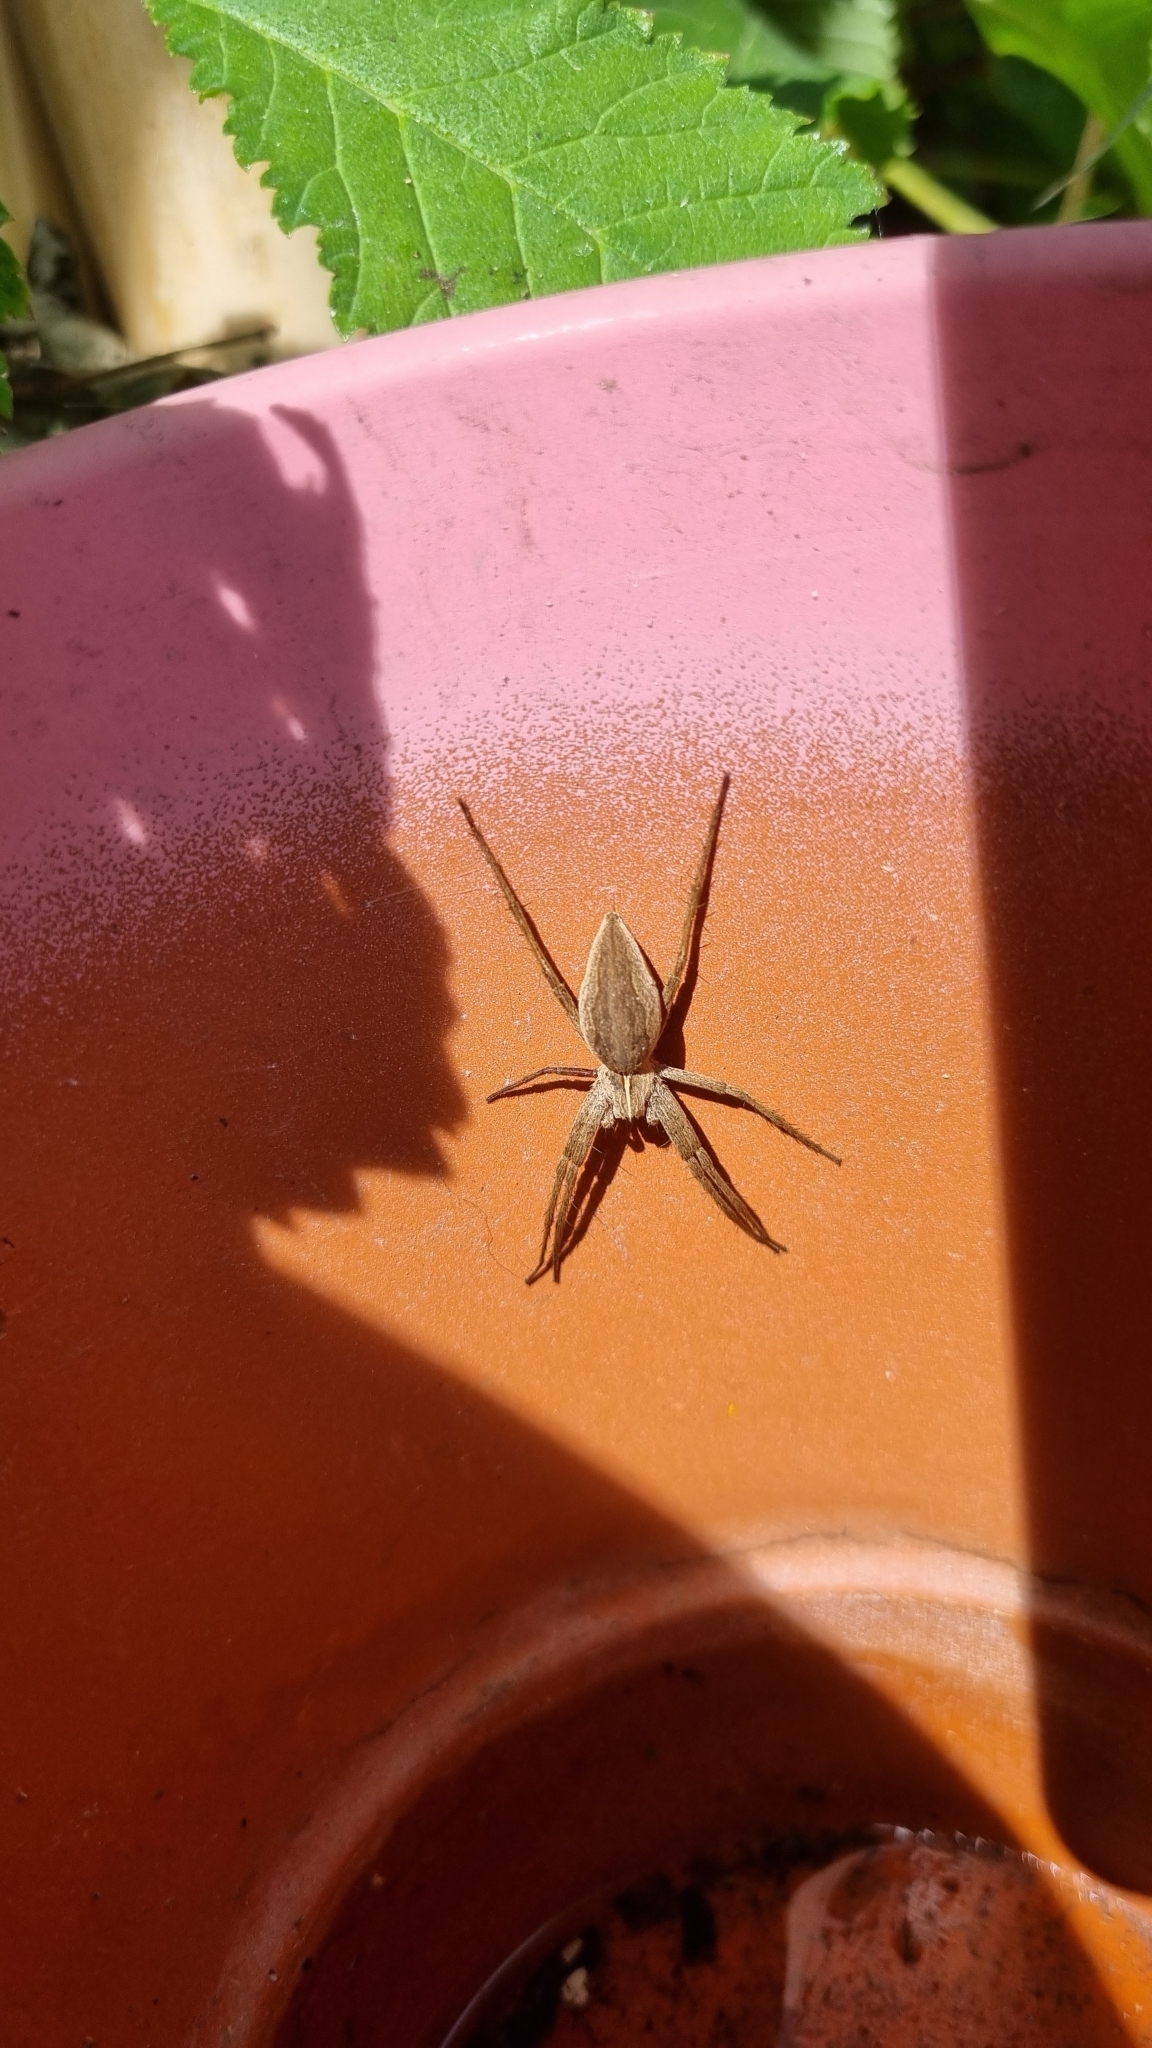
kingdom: Animalia
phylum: Arthropoda
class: Arachnida
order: Araneae
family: Pisauridae
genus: Pisaura
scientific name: Pisaura mirabilis
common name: Tent spider
